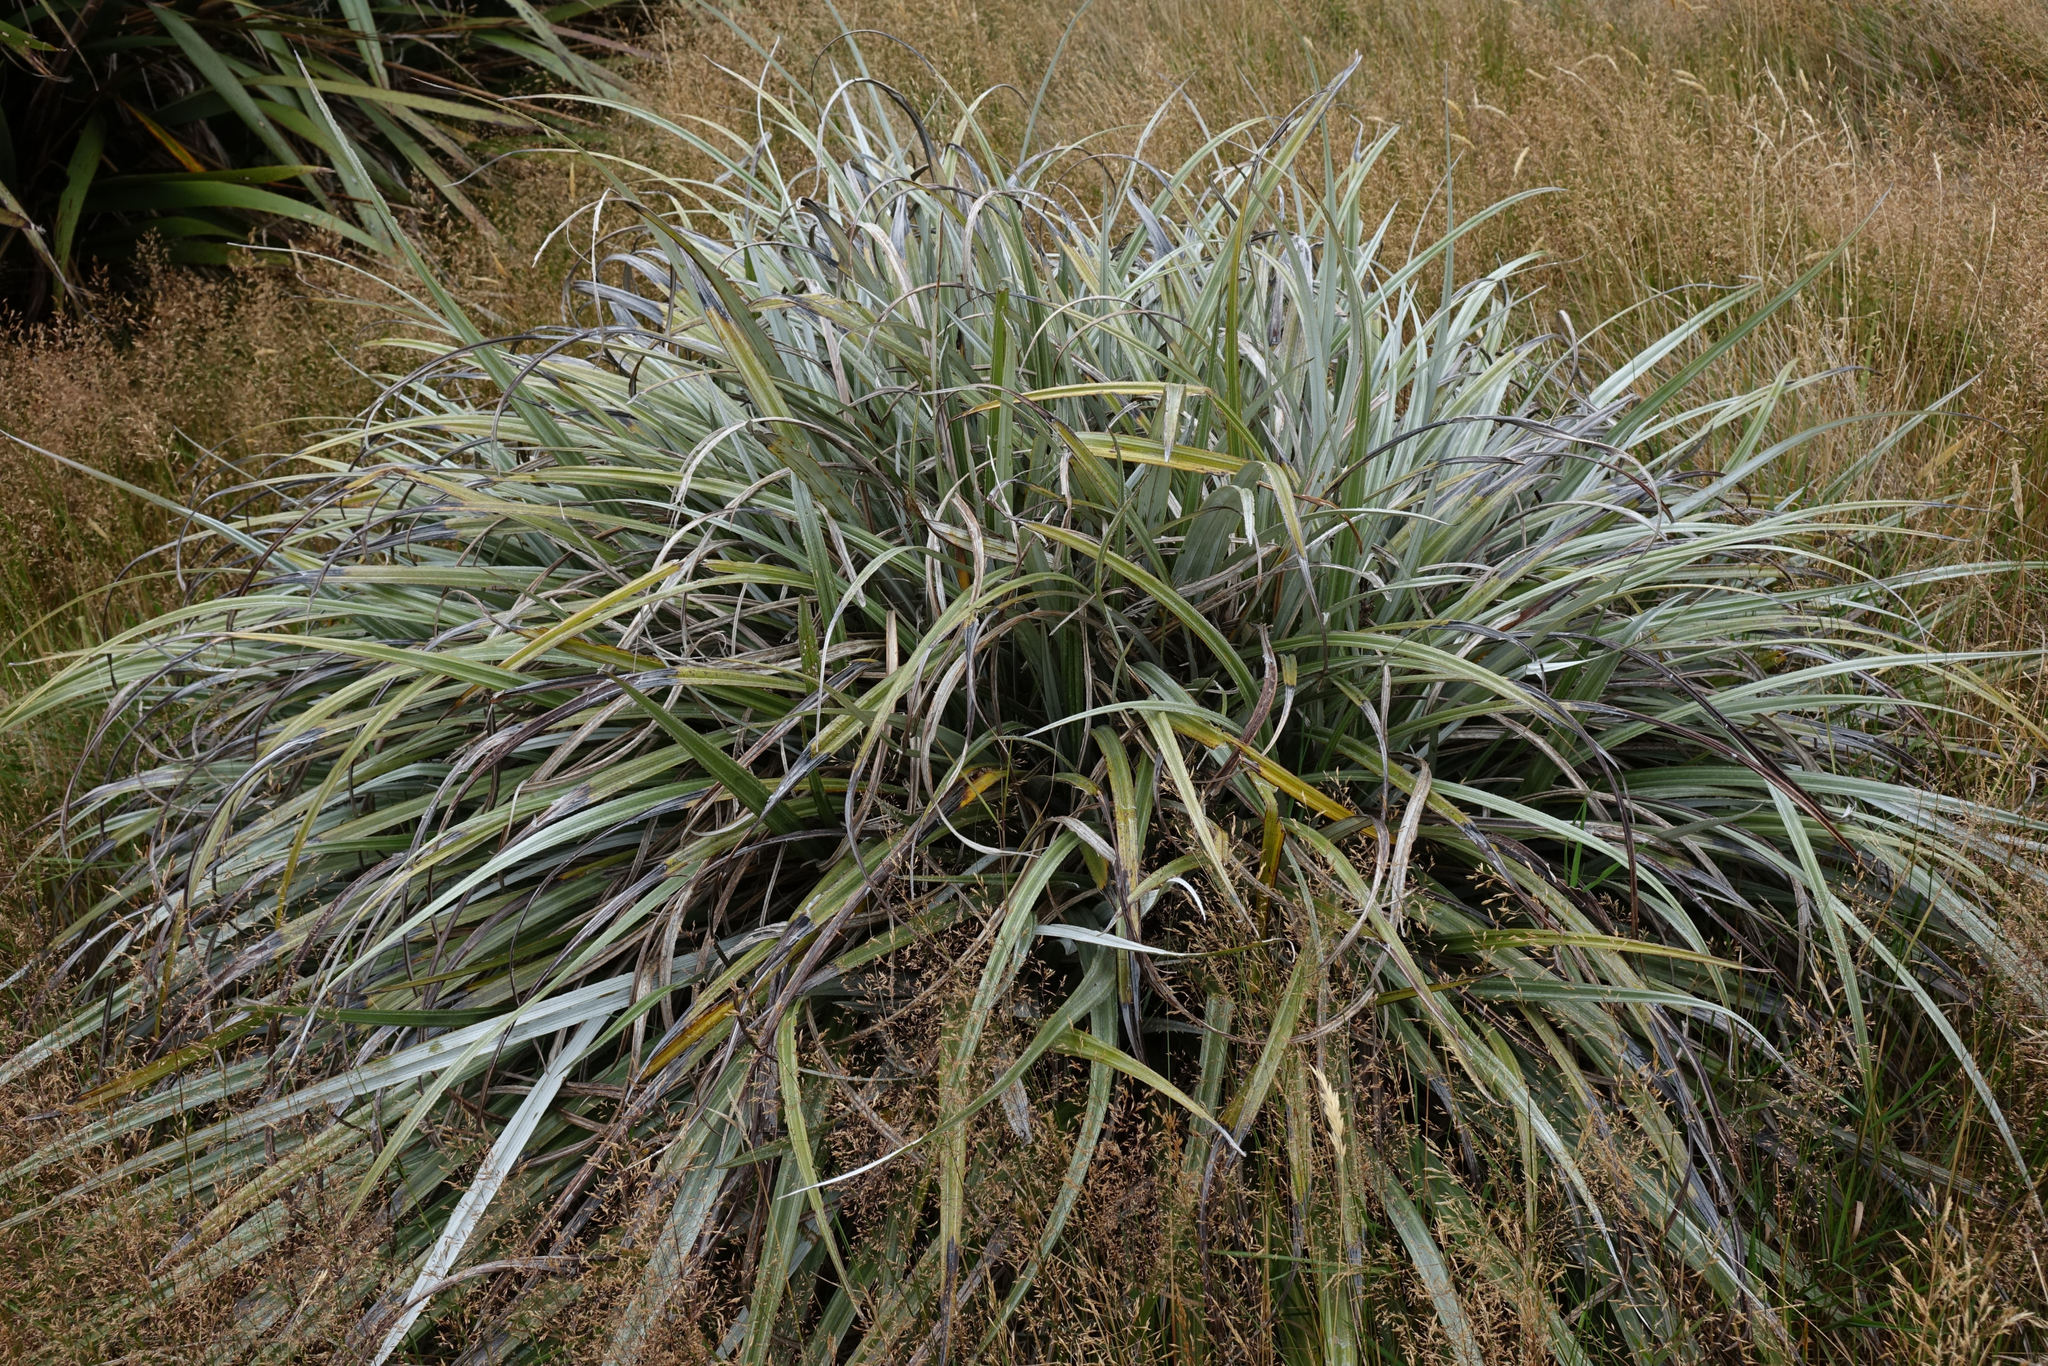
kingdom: Plantae
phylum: Tracheophyta
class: Liliopsida
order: Asparagales
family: Asteliaceae
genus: Astelia
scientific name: Astelia nervosa
